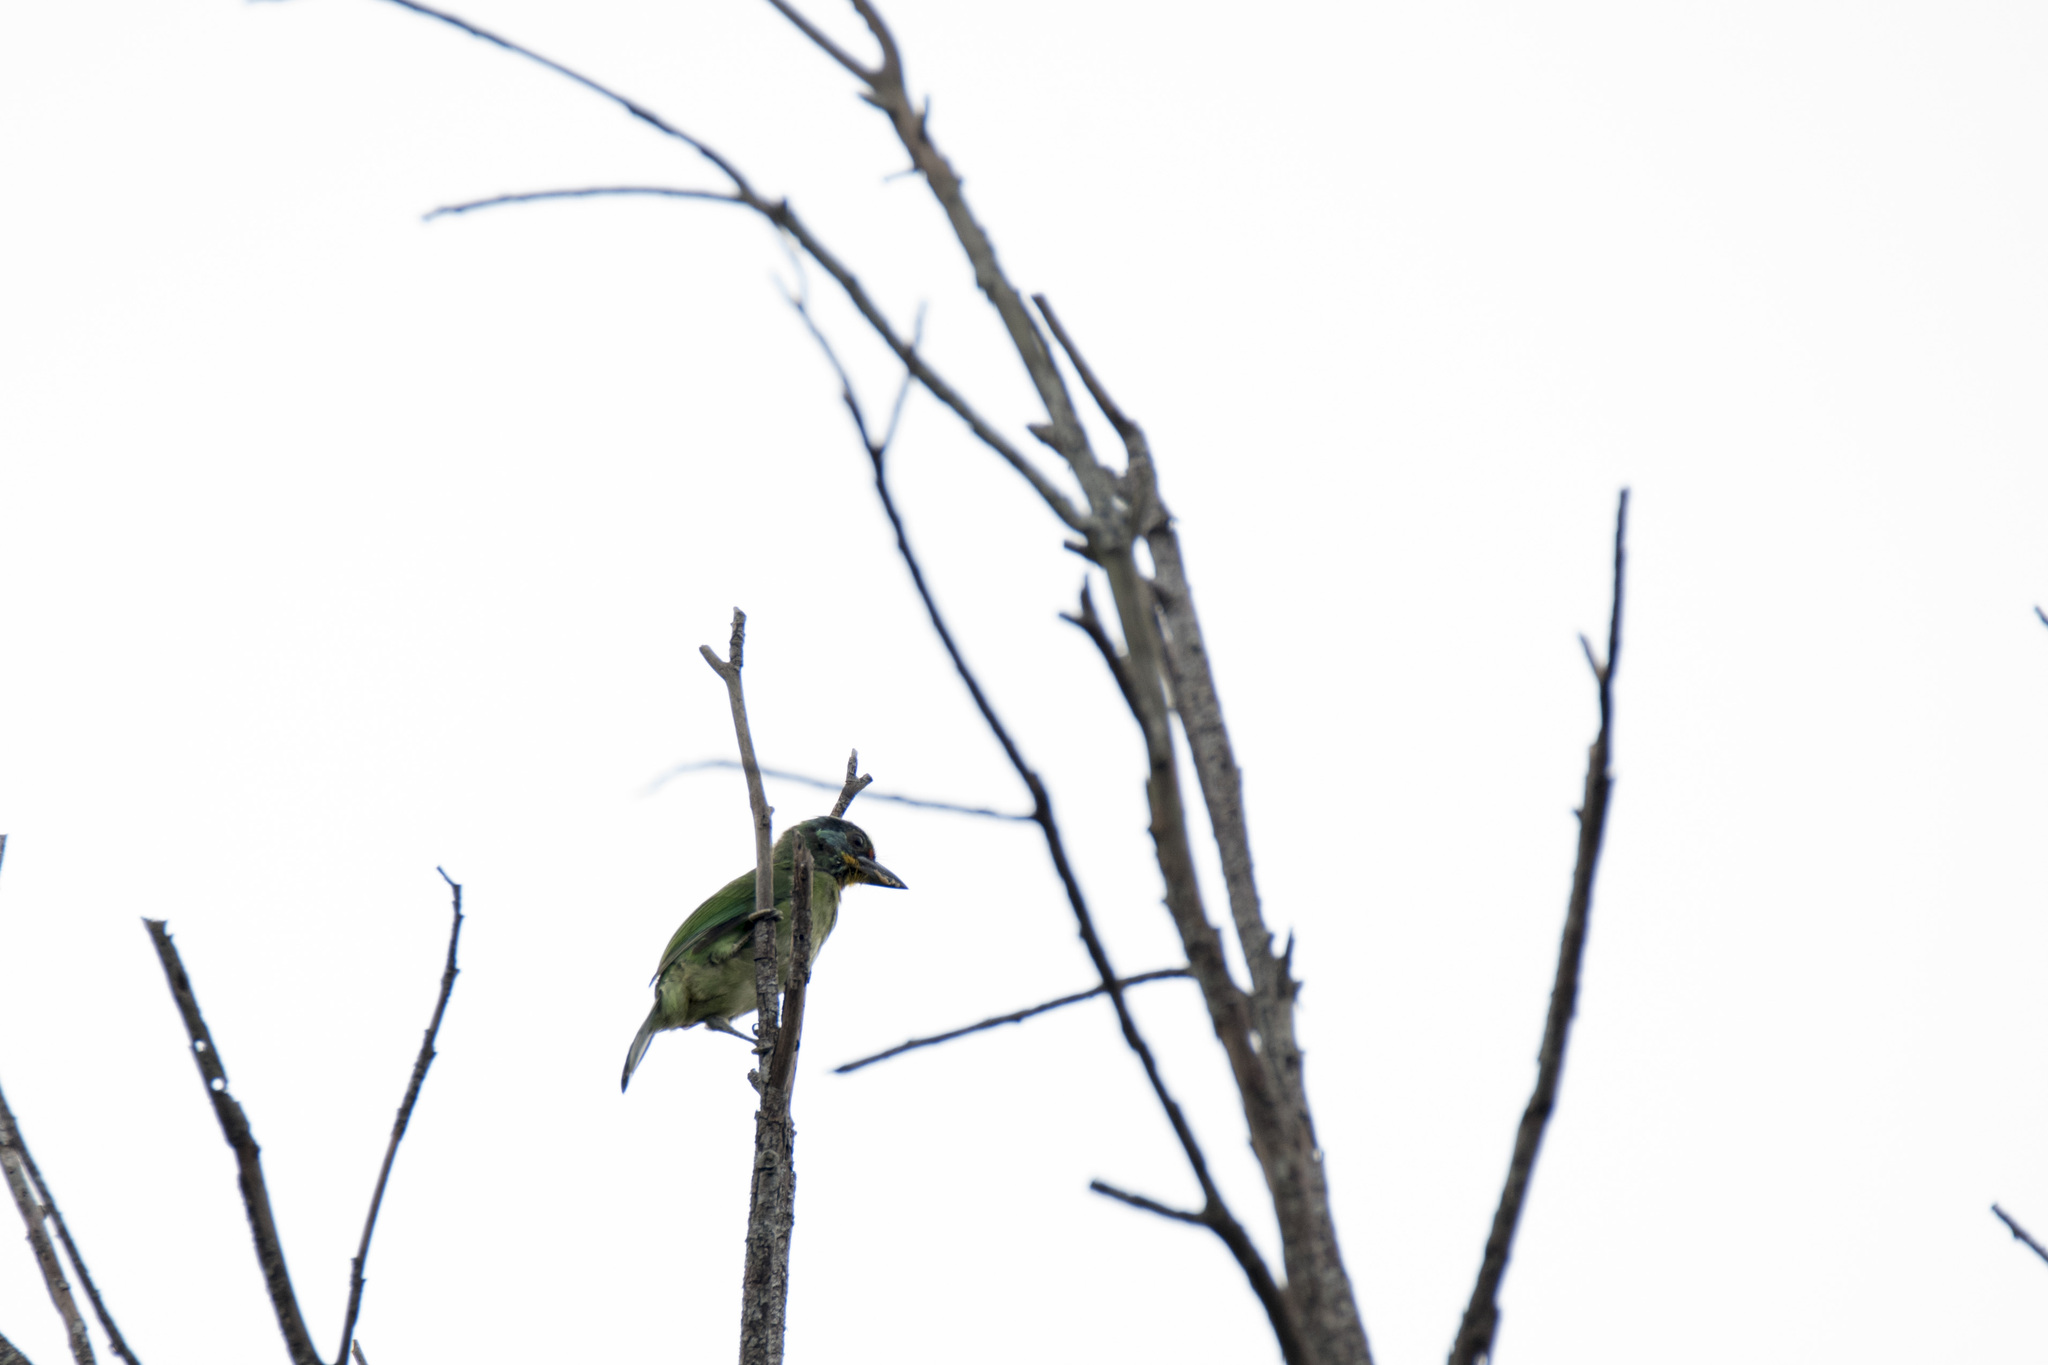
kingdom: Animalia
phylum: Chordata
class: Aves
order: Piciformes
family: Megalaimidae
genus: Psilopogon
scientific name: Psilopogon nuchalis
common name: Taiwan barbet
